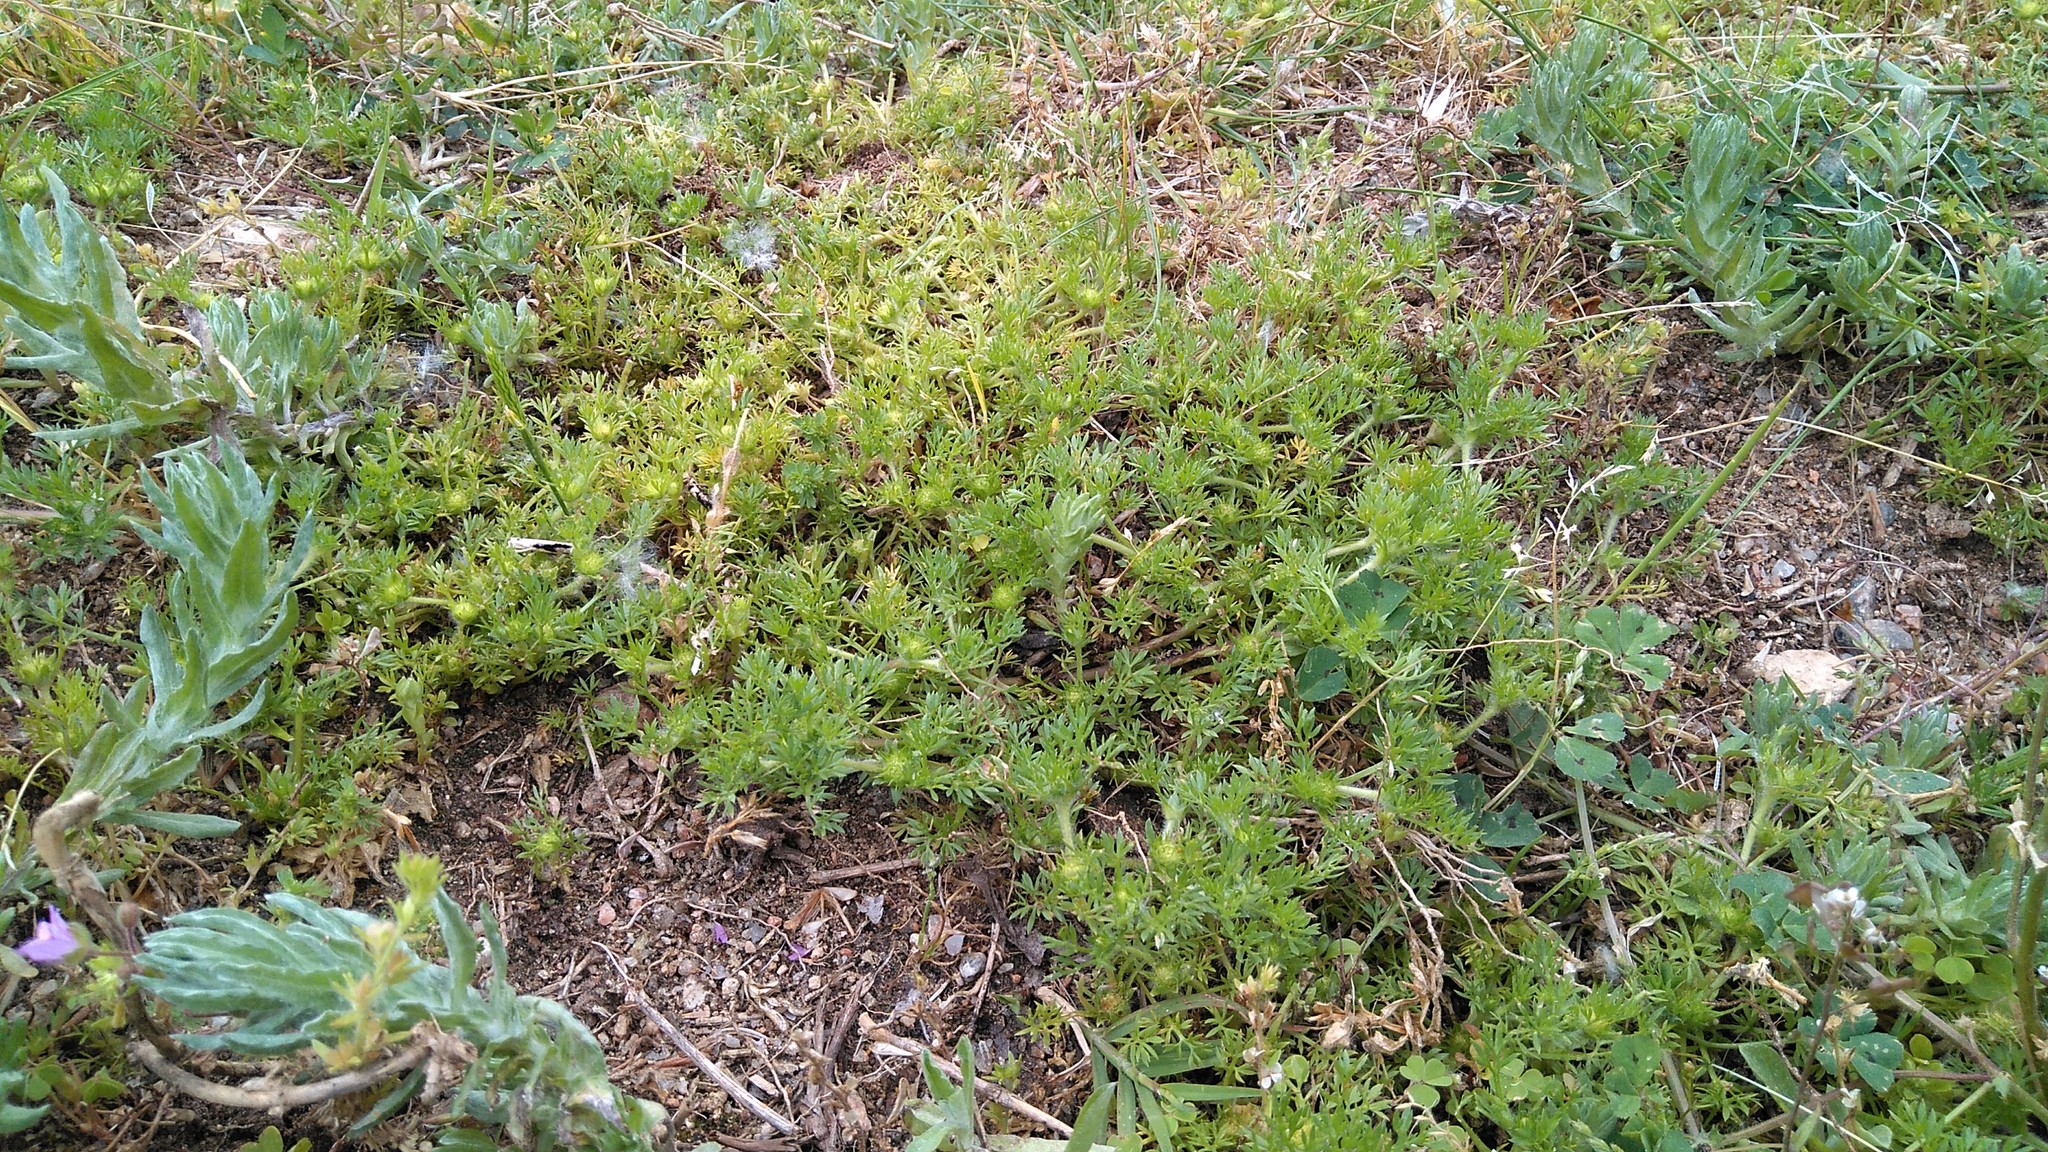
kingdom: Plantae
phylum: Tracheophyta
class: Magnoliopsida
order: Asterales
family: Asteraceae
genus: Soliva
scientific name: Soliva sessilis
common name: Field burrweed
